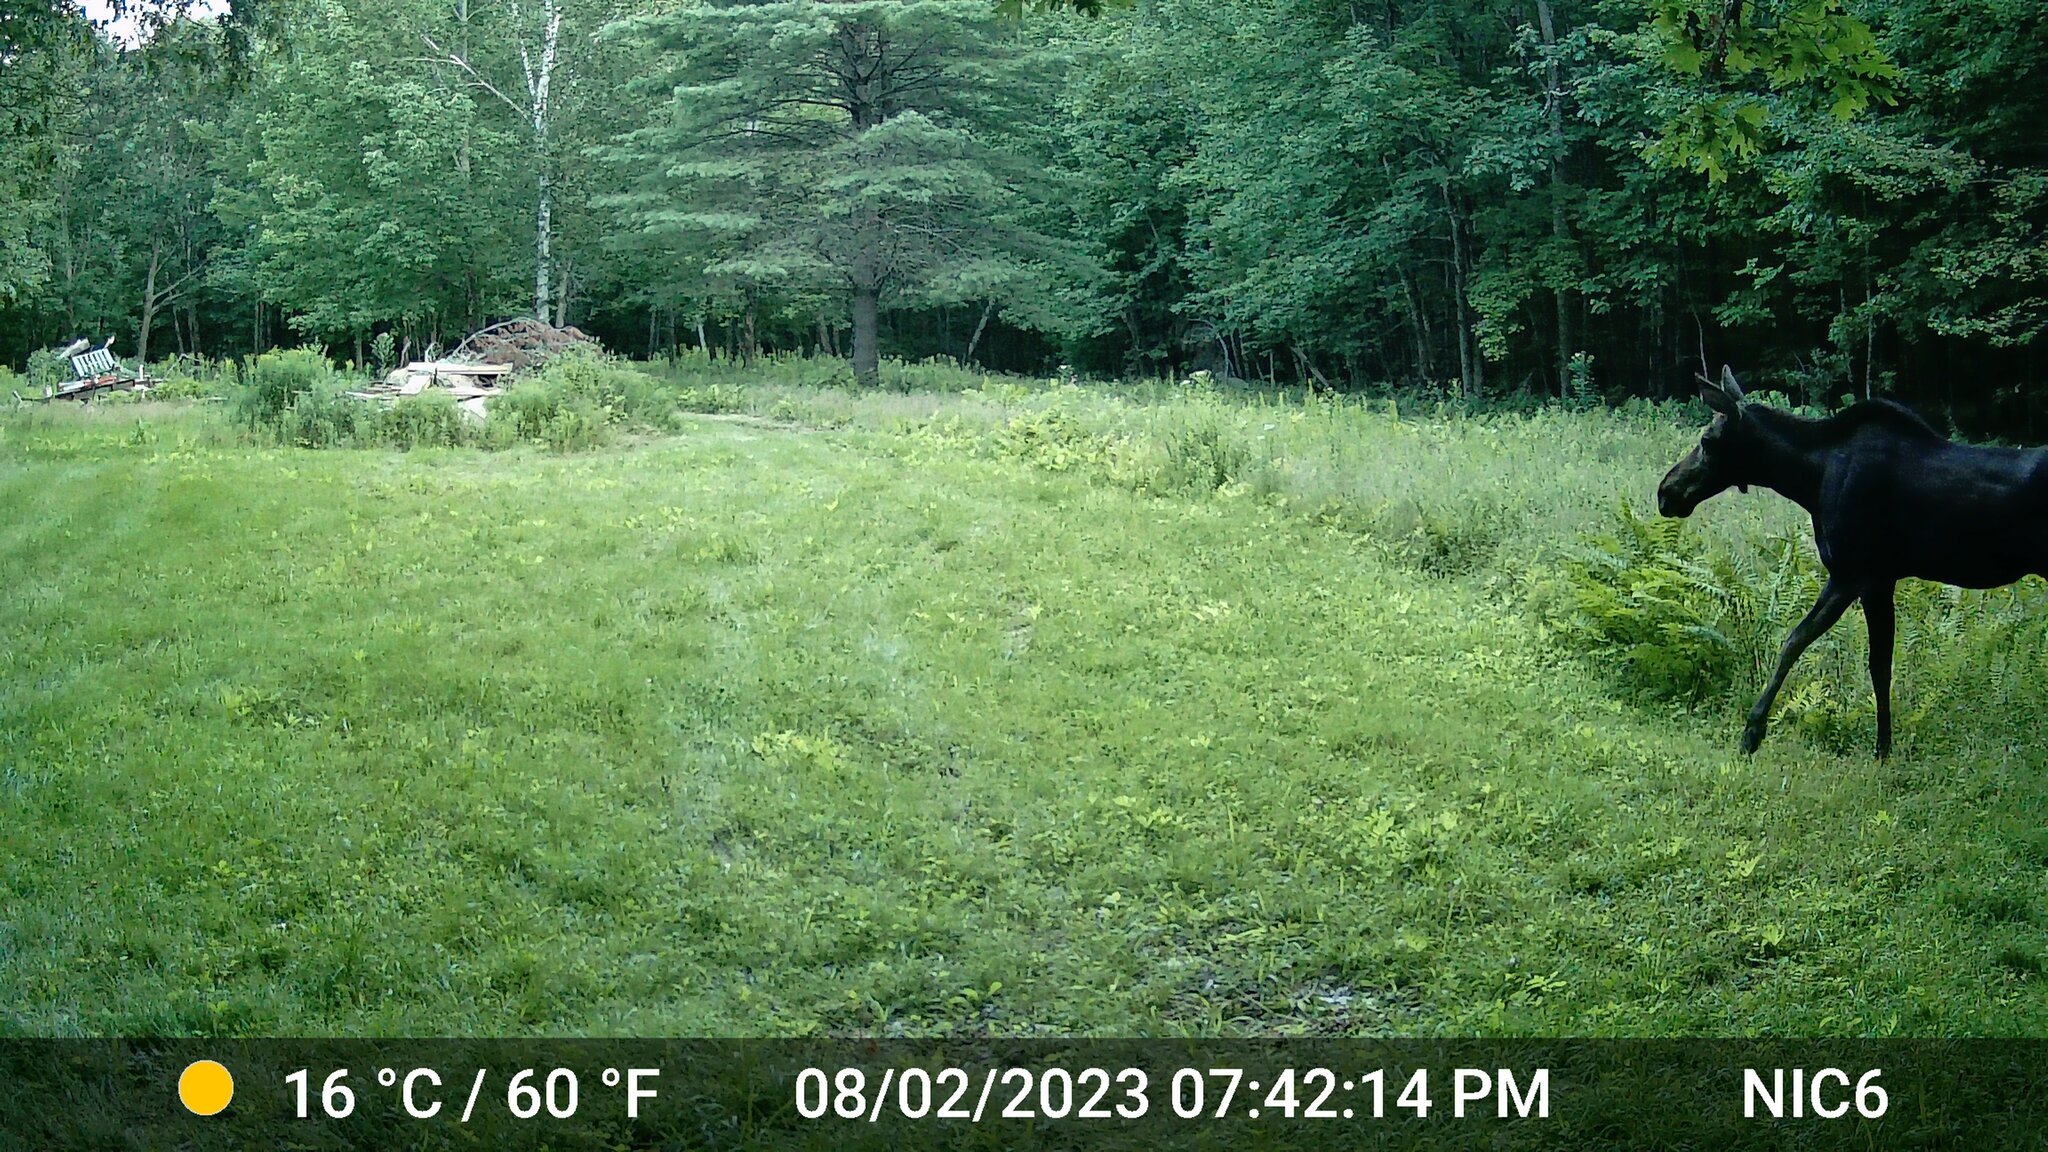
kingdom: Animalia
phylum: Chordata
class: Mammalia
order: Artiodactyla
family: Cervidae
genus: Alces
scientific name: Alces alces
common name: Moose
